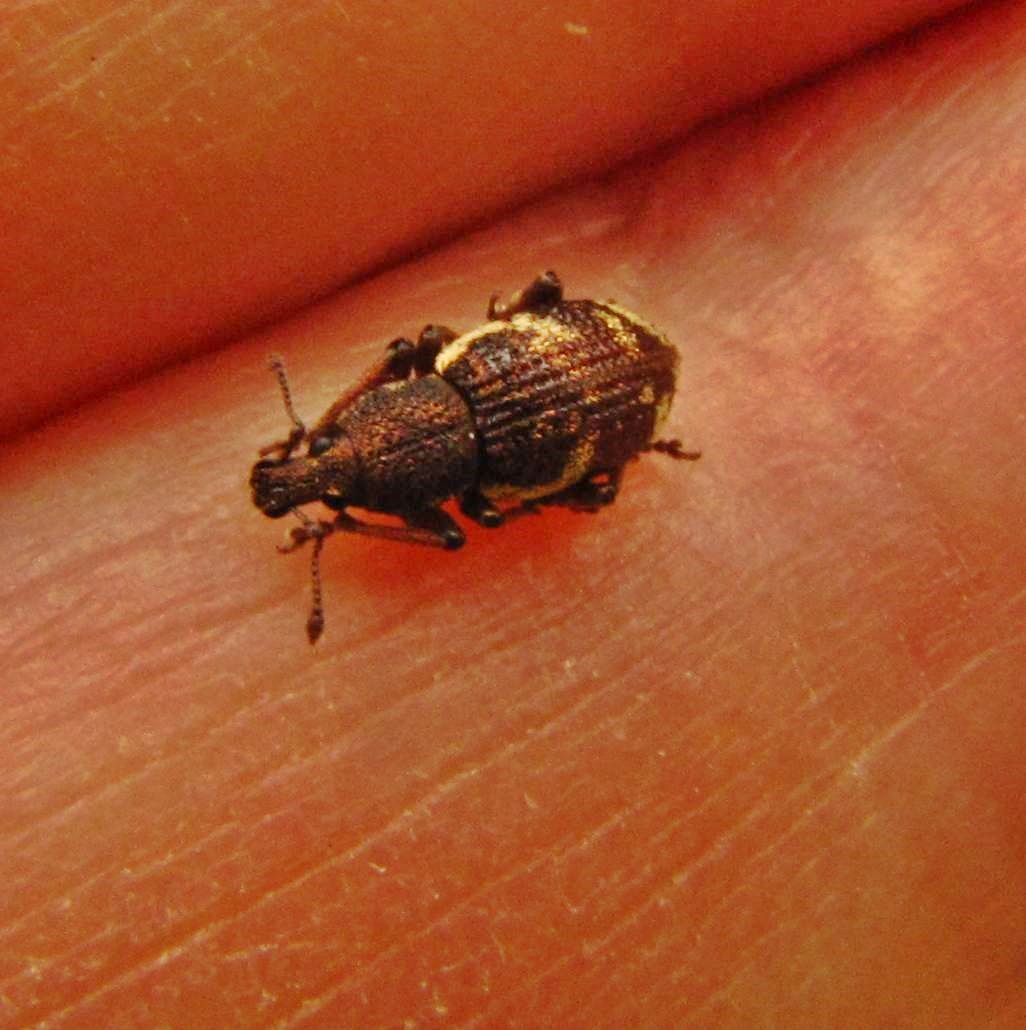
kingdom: Animalia
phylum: Arthropoda
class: Insecta
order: Coleoptera
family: Curculionidae
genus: Hormorus
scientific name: Hormorus undulatus
